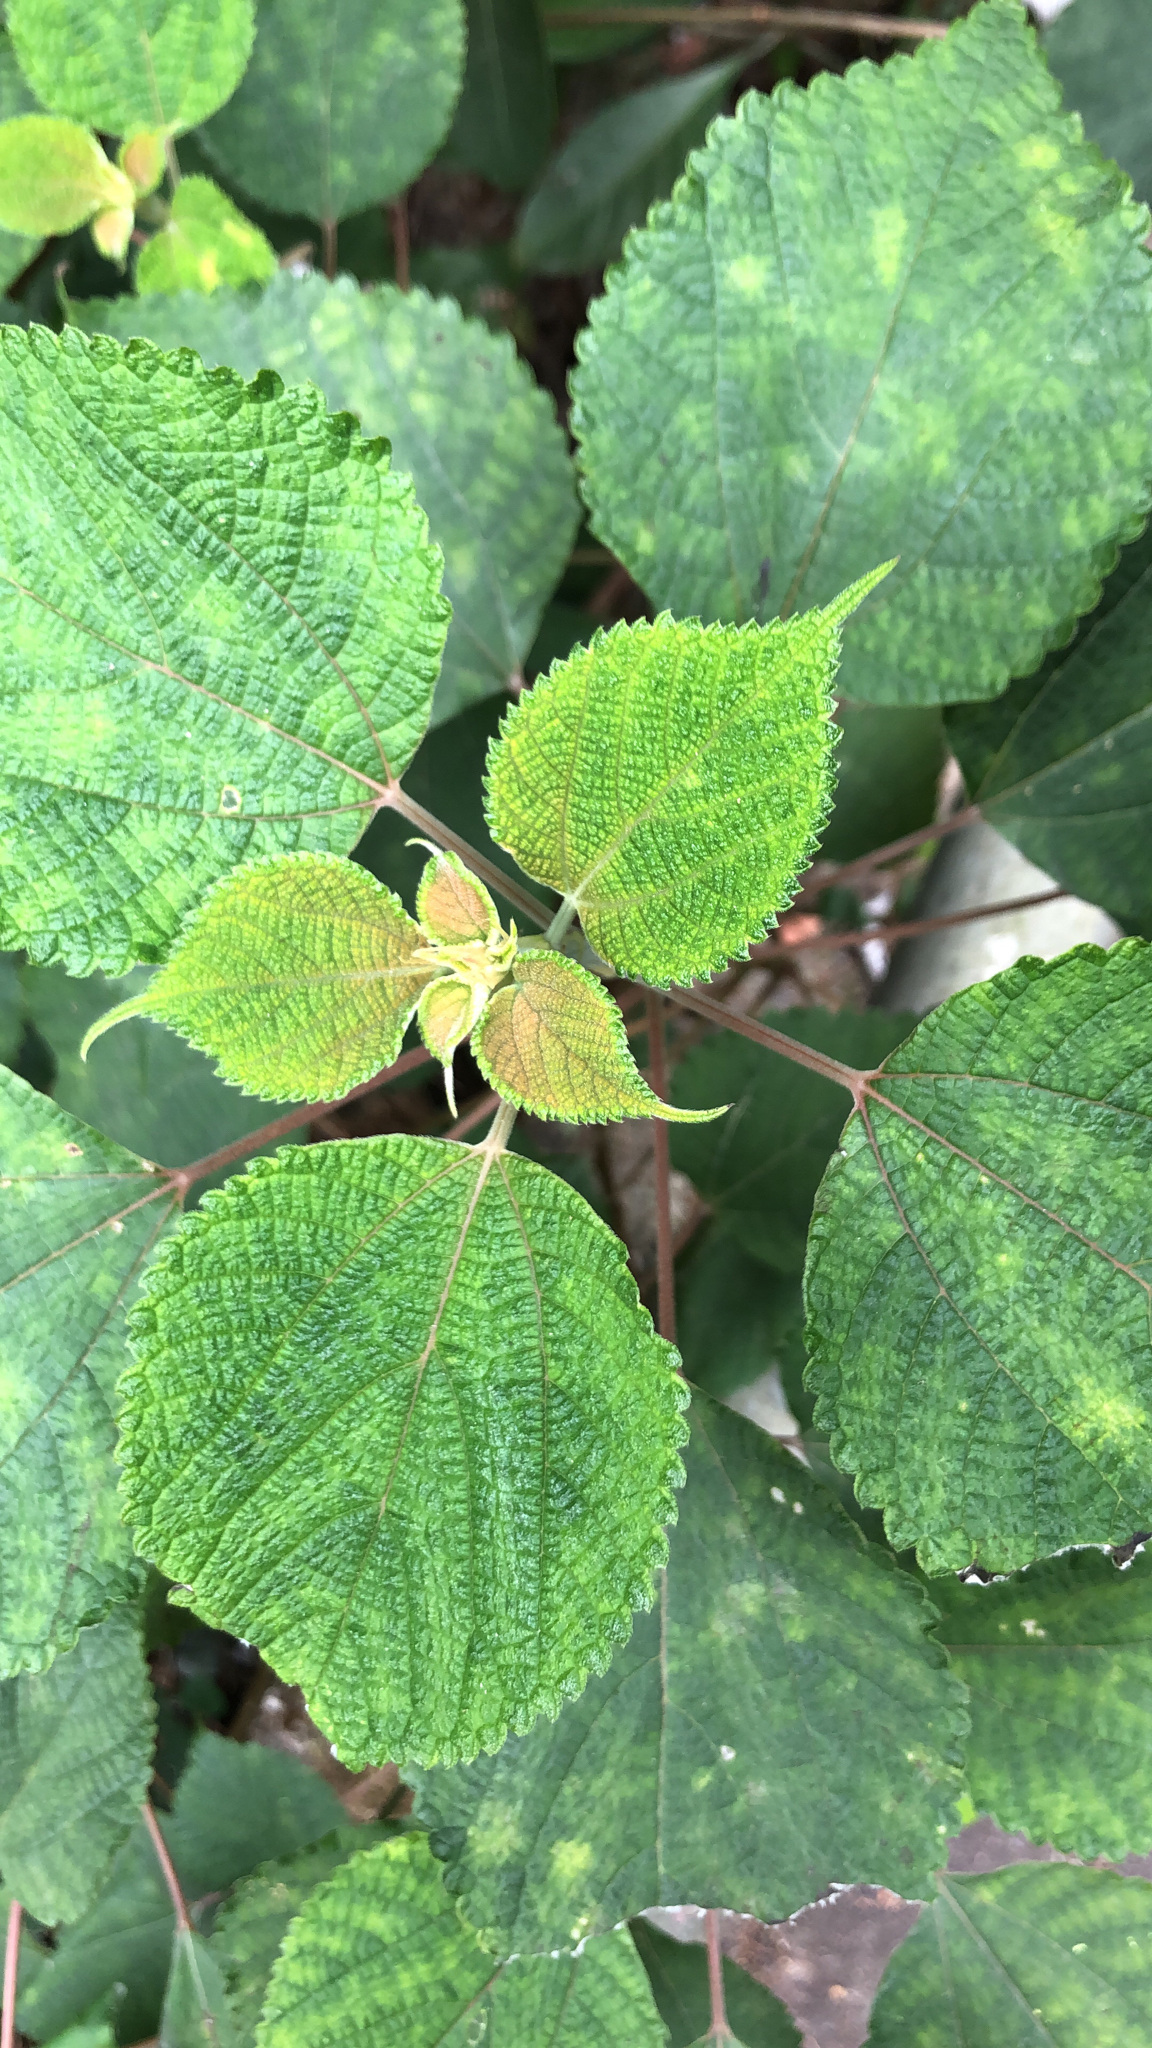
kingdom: Plantae
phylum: Tracheophyta
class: Magnoliopsida
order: Rosales
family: Urticaceae
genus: Boehmeria
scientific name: Boehmeria nivea
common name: Ramie chinese grass
